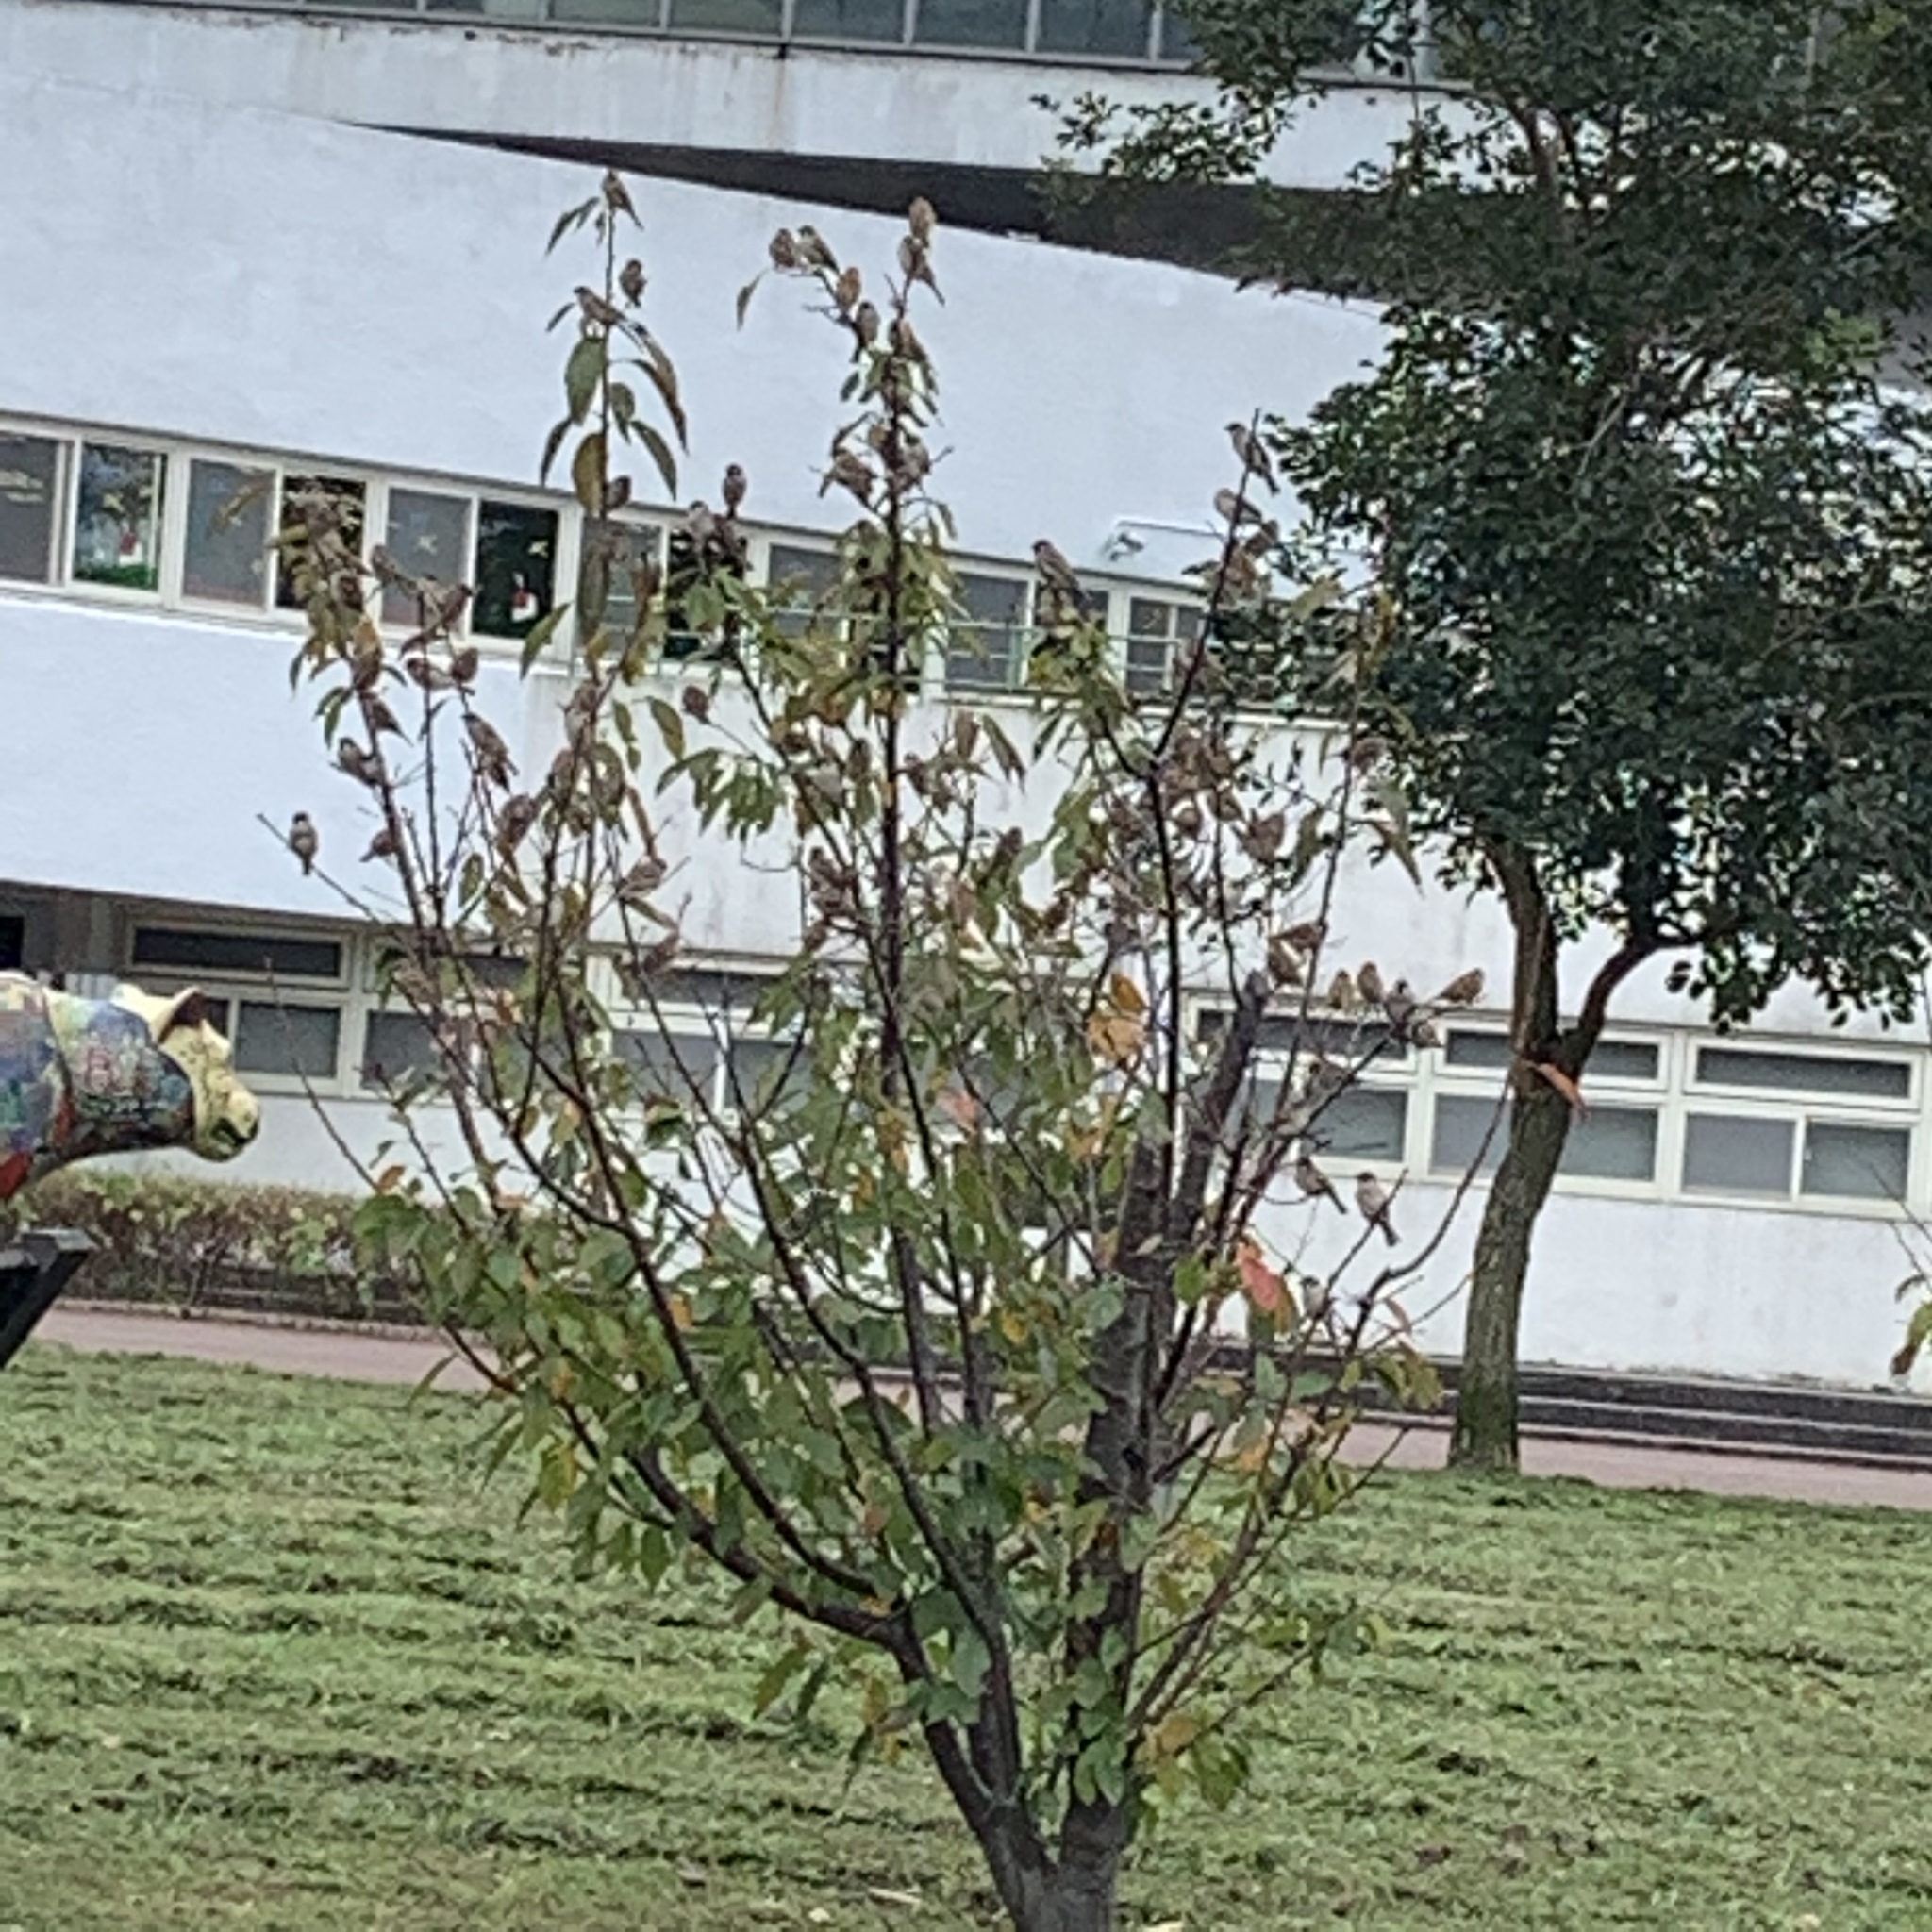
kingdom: Animalia
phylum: Chordata
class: Aves
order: Passeriformes
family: Passeridae
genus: Passer
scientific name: Passer montanus
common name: Eurasian tree sparrow
